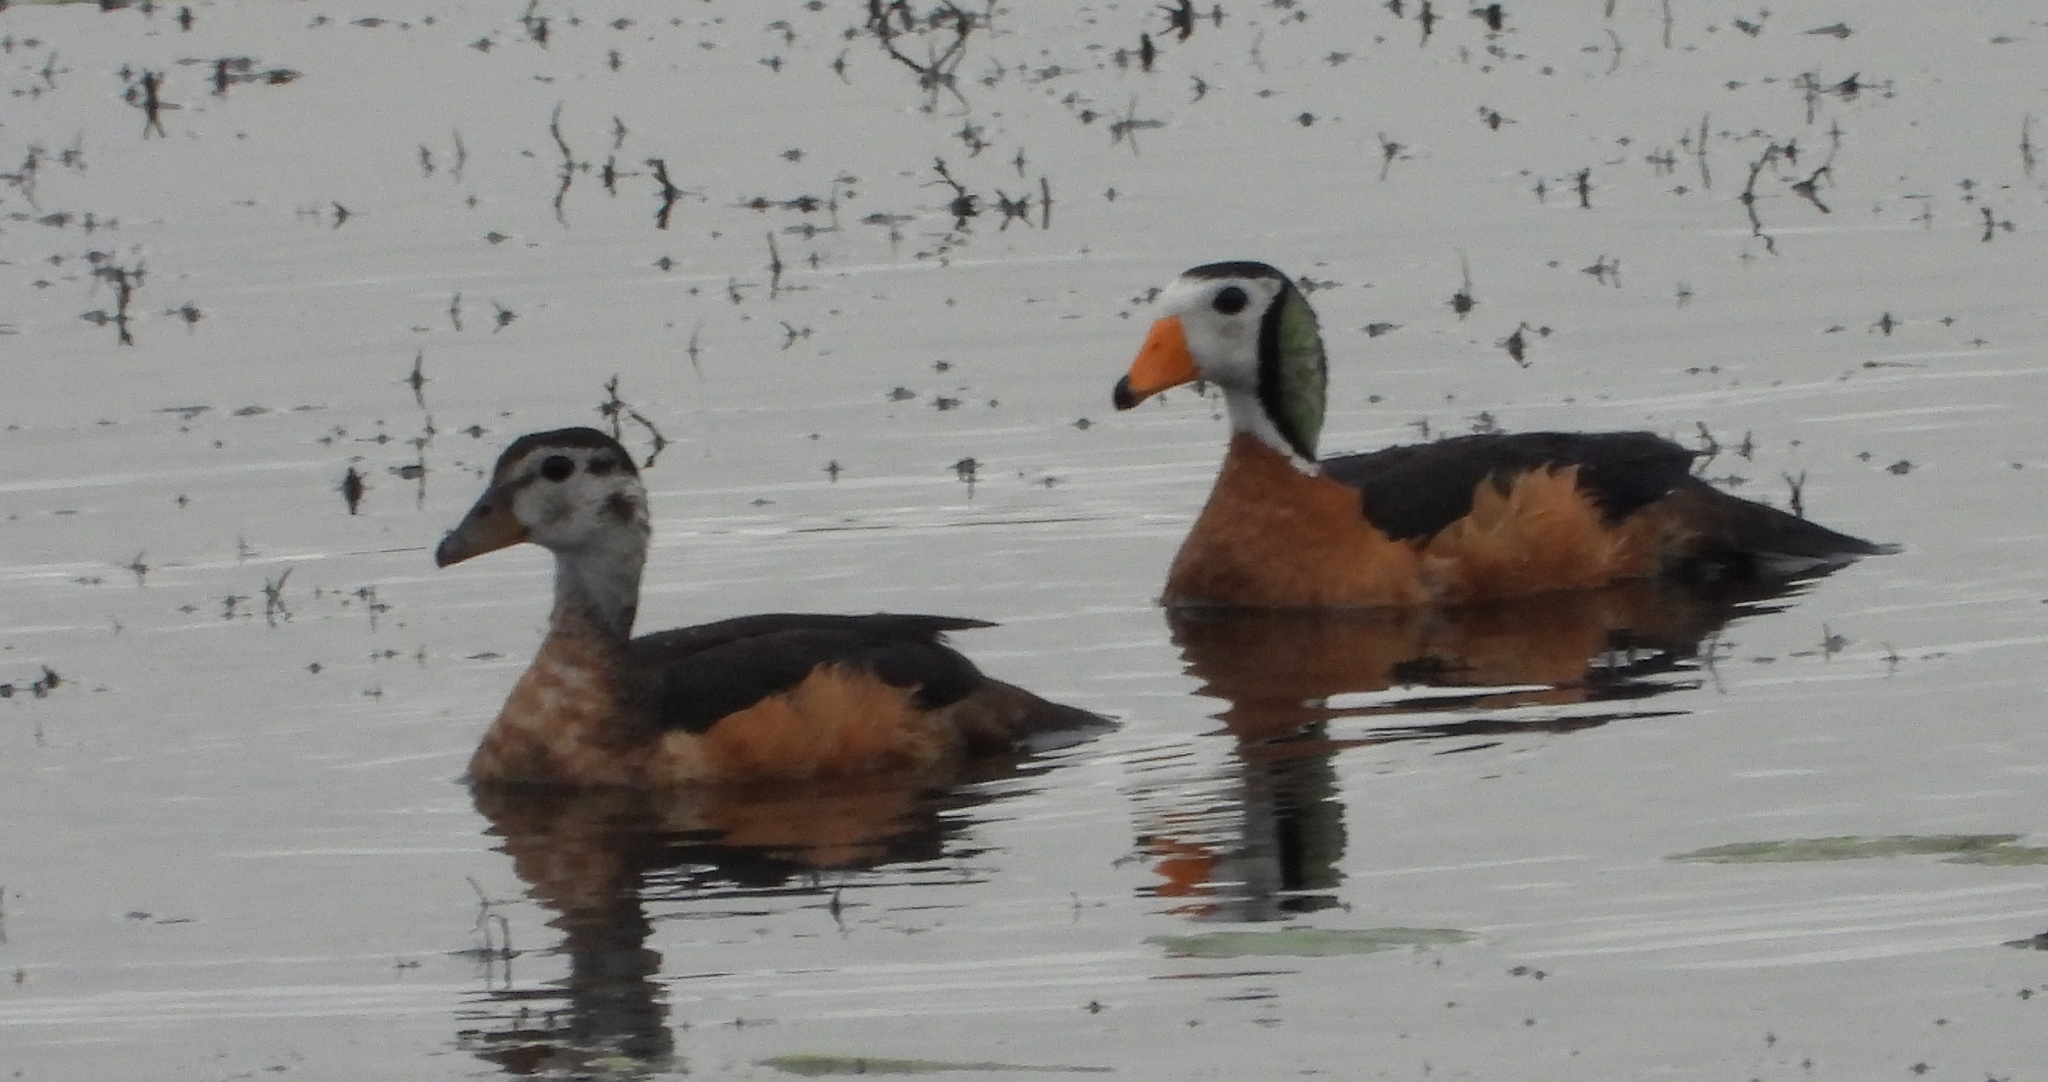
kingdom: Animalia
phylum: Chordata
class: Aves
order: Anseriformes
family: Anatidae
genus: Nettapus
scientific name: Nettapus auritus
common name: African pygmy-goose
